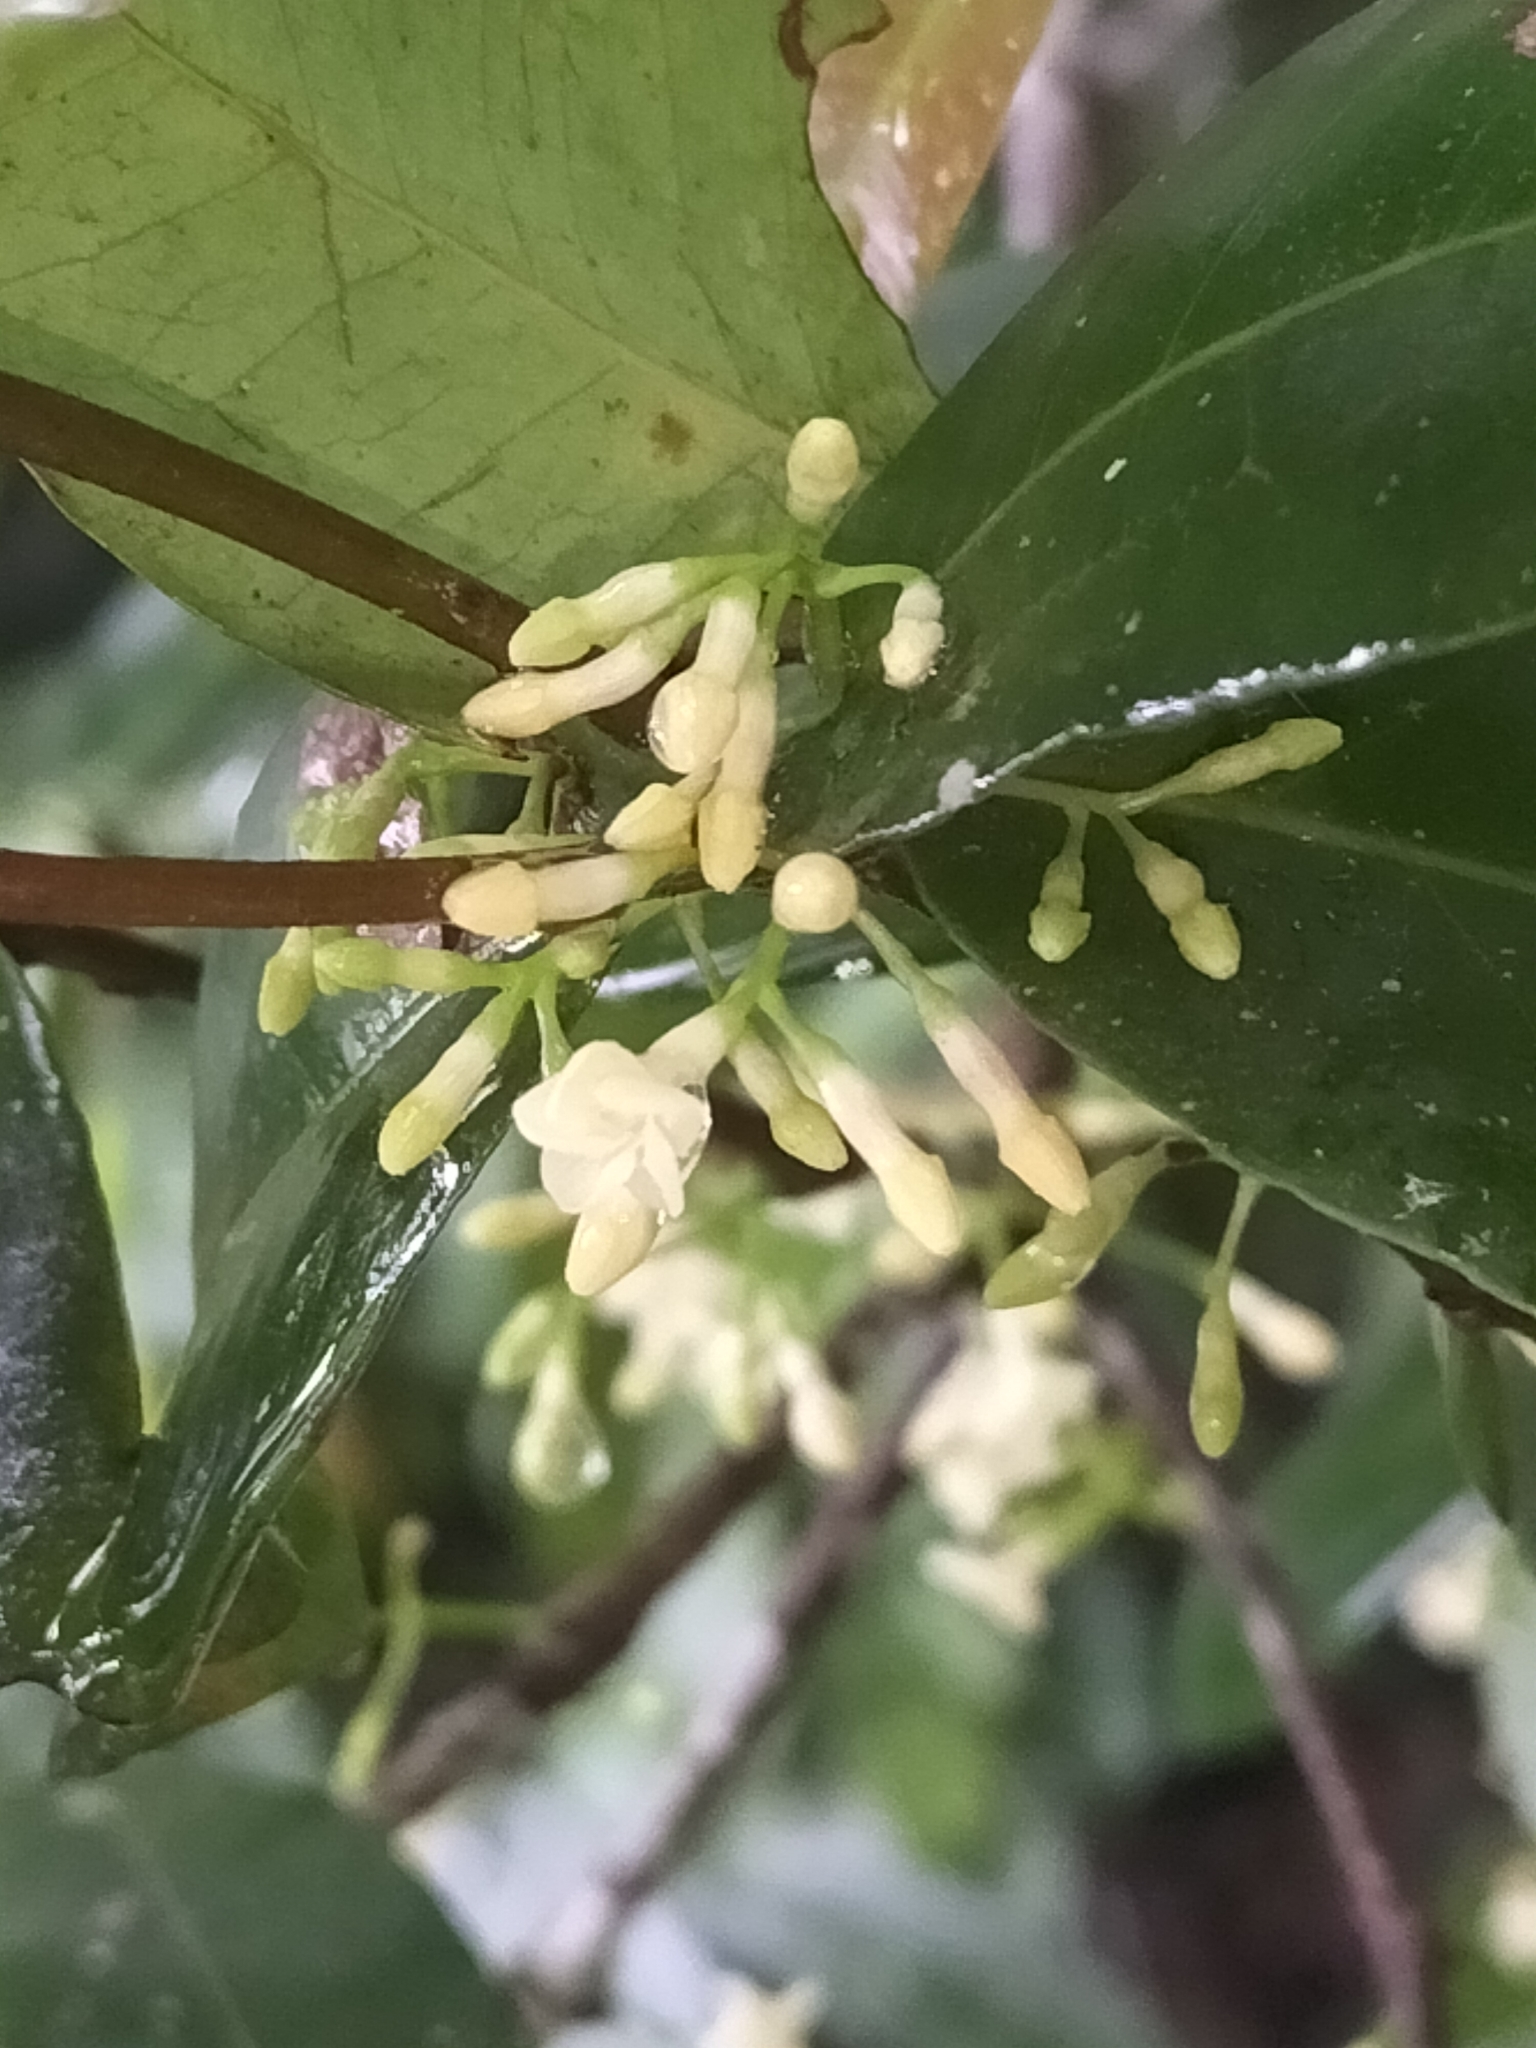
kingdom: Plantae
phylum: Tracheophyta
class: Magnoliopsida
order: Gentianales
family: Apocynaceae
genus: Melodinus
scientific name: Melodinus australis
